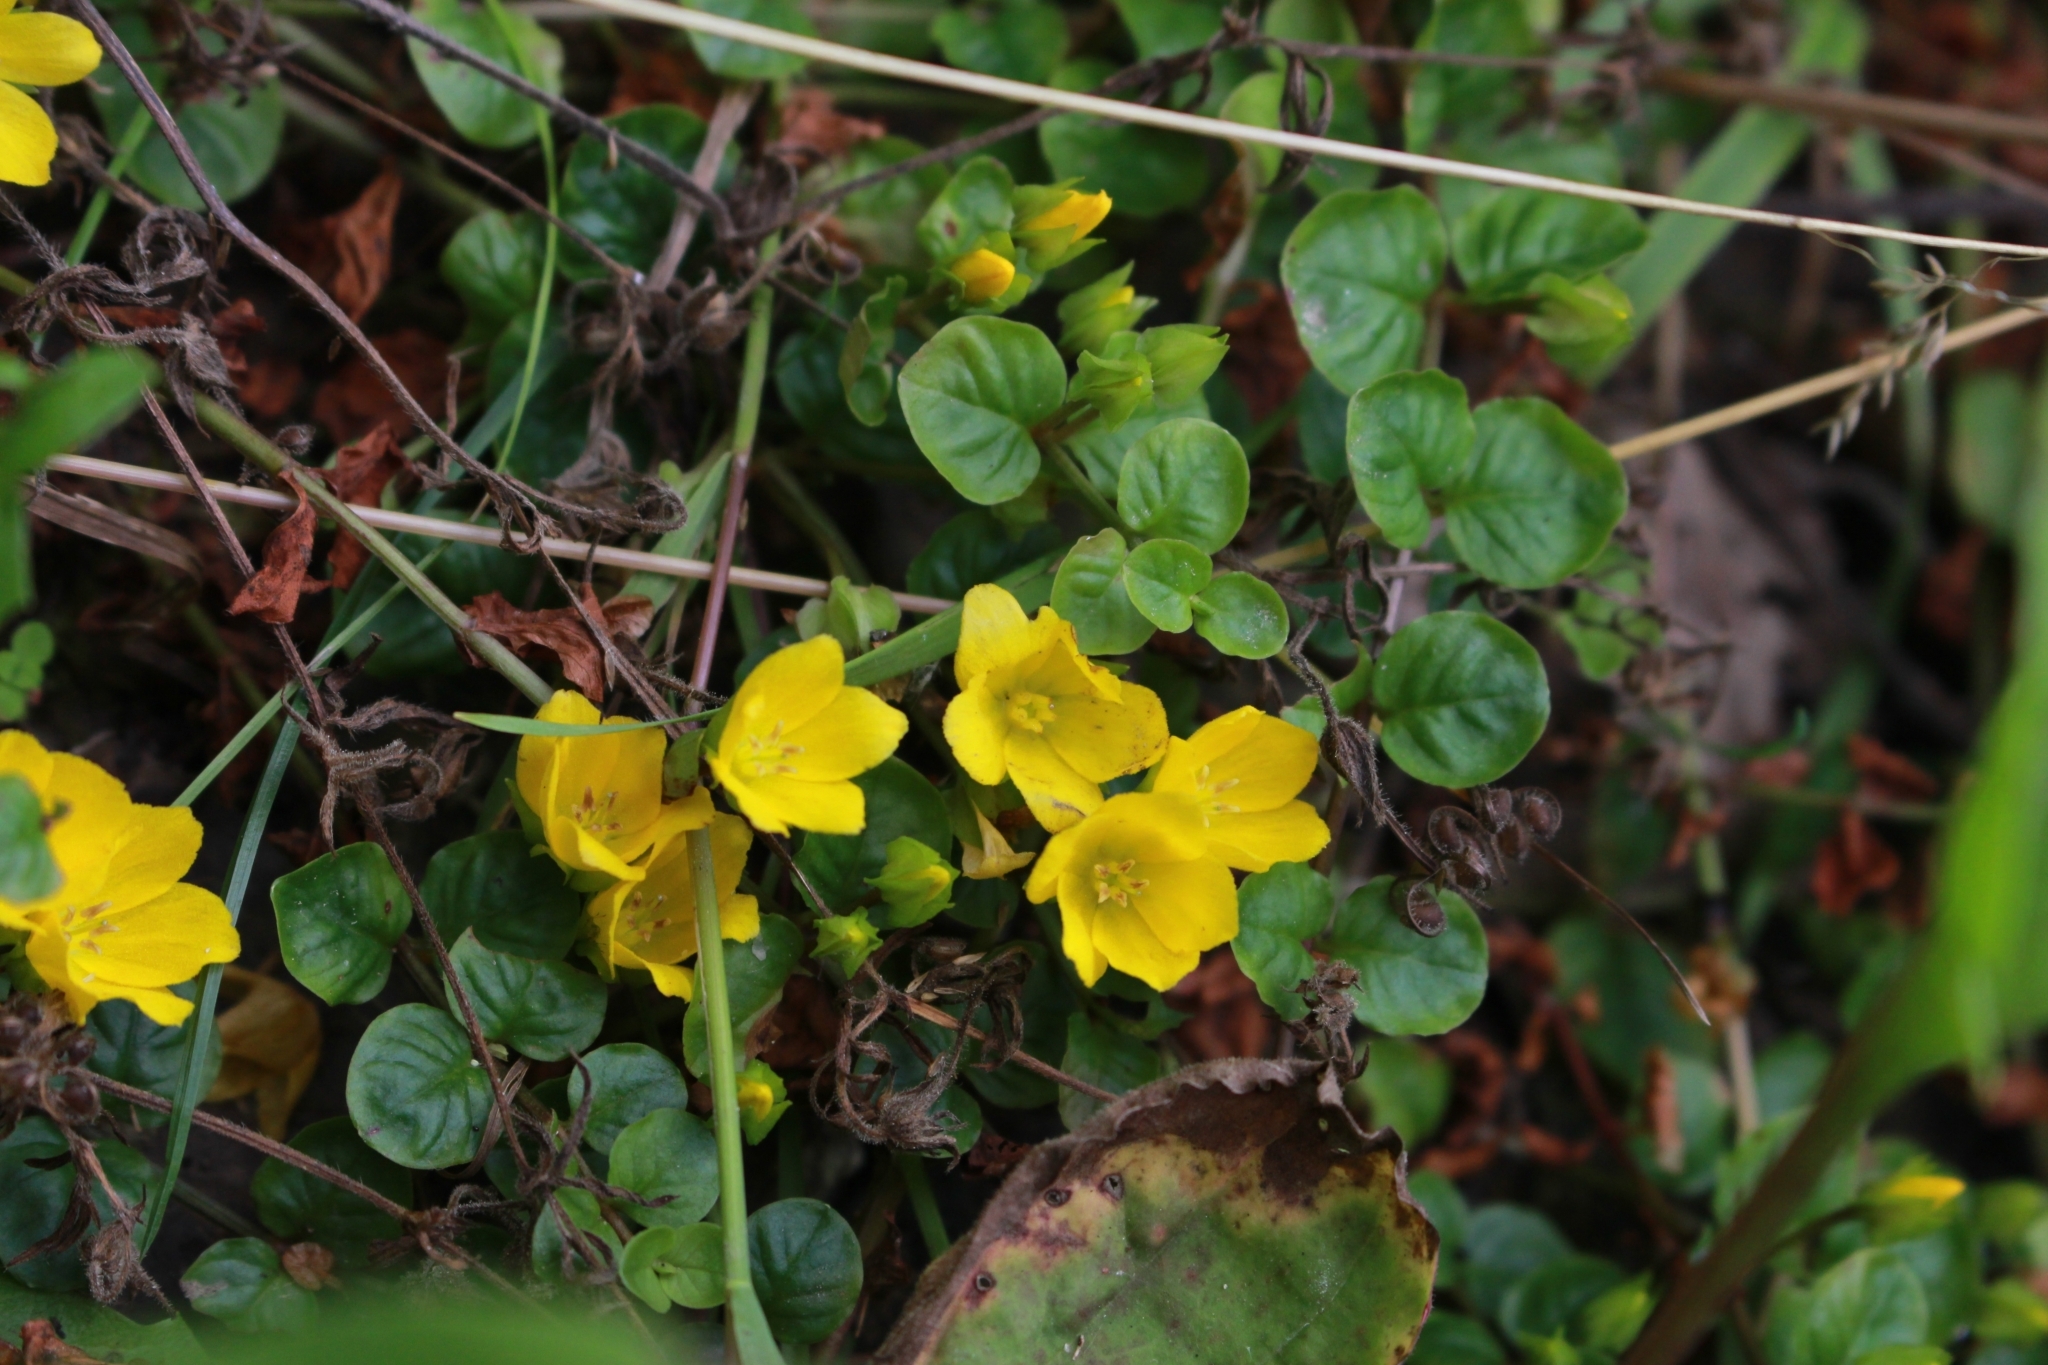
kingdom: Plantae
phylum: Tracheophyta
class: Magnoliopsida
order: Ericales
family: Primulaceae
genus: Lysimachia
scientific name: Lysimachia nummularia
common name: Moneywort
